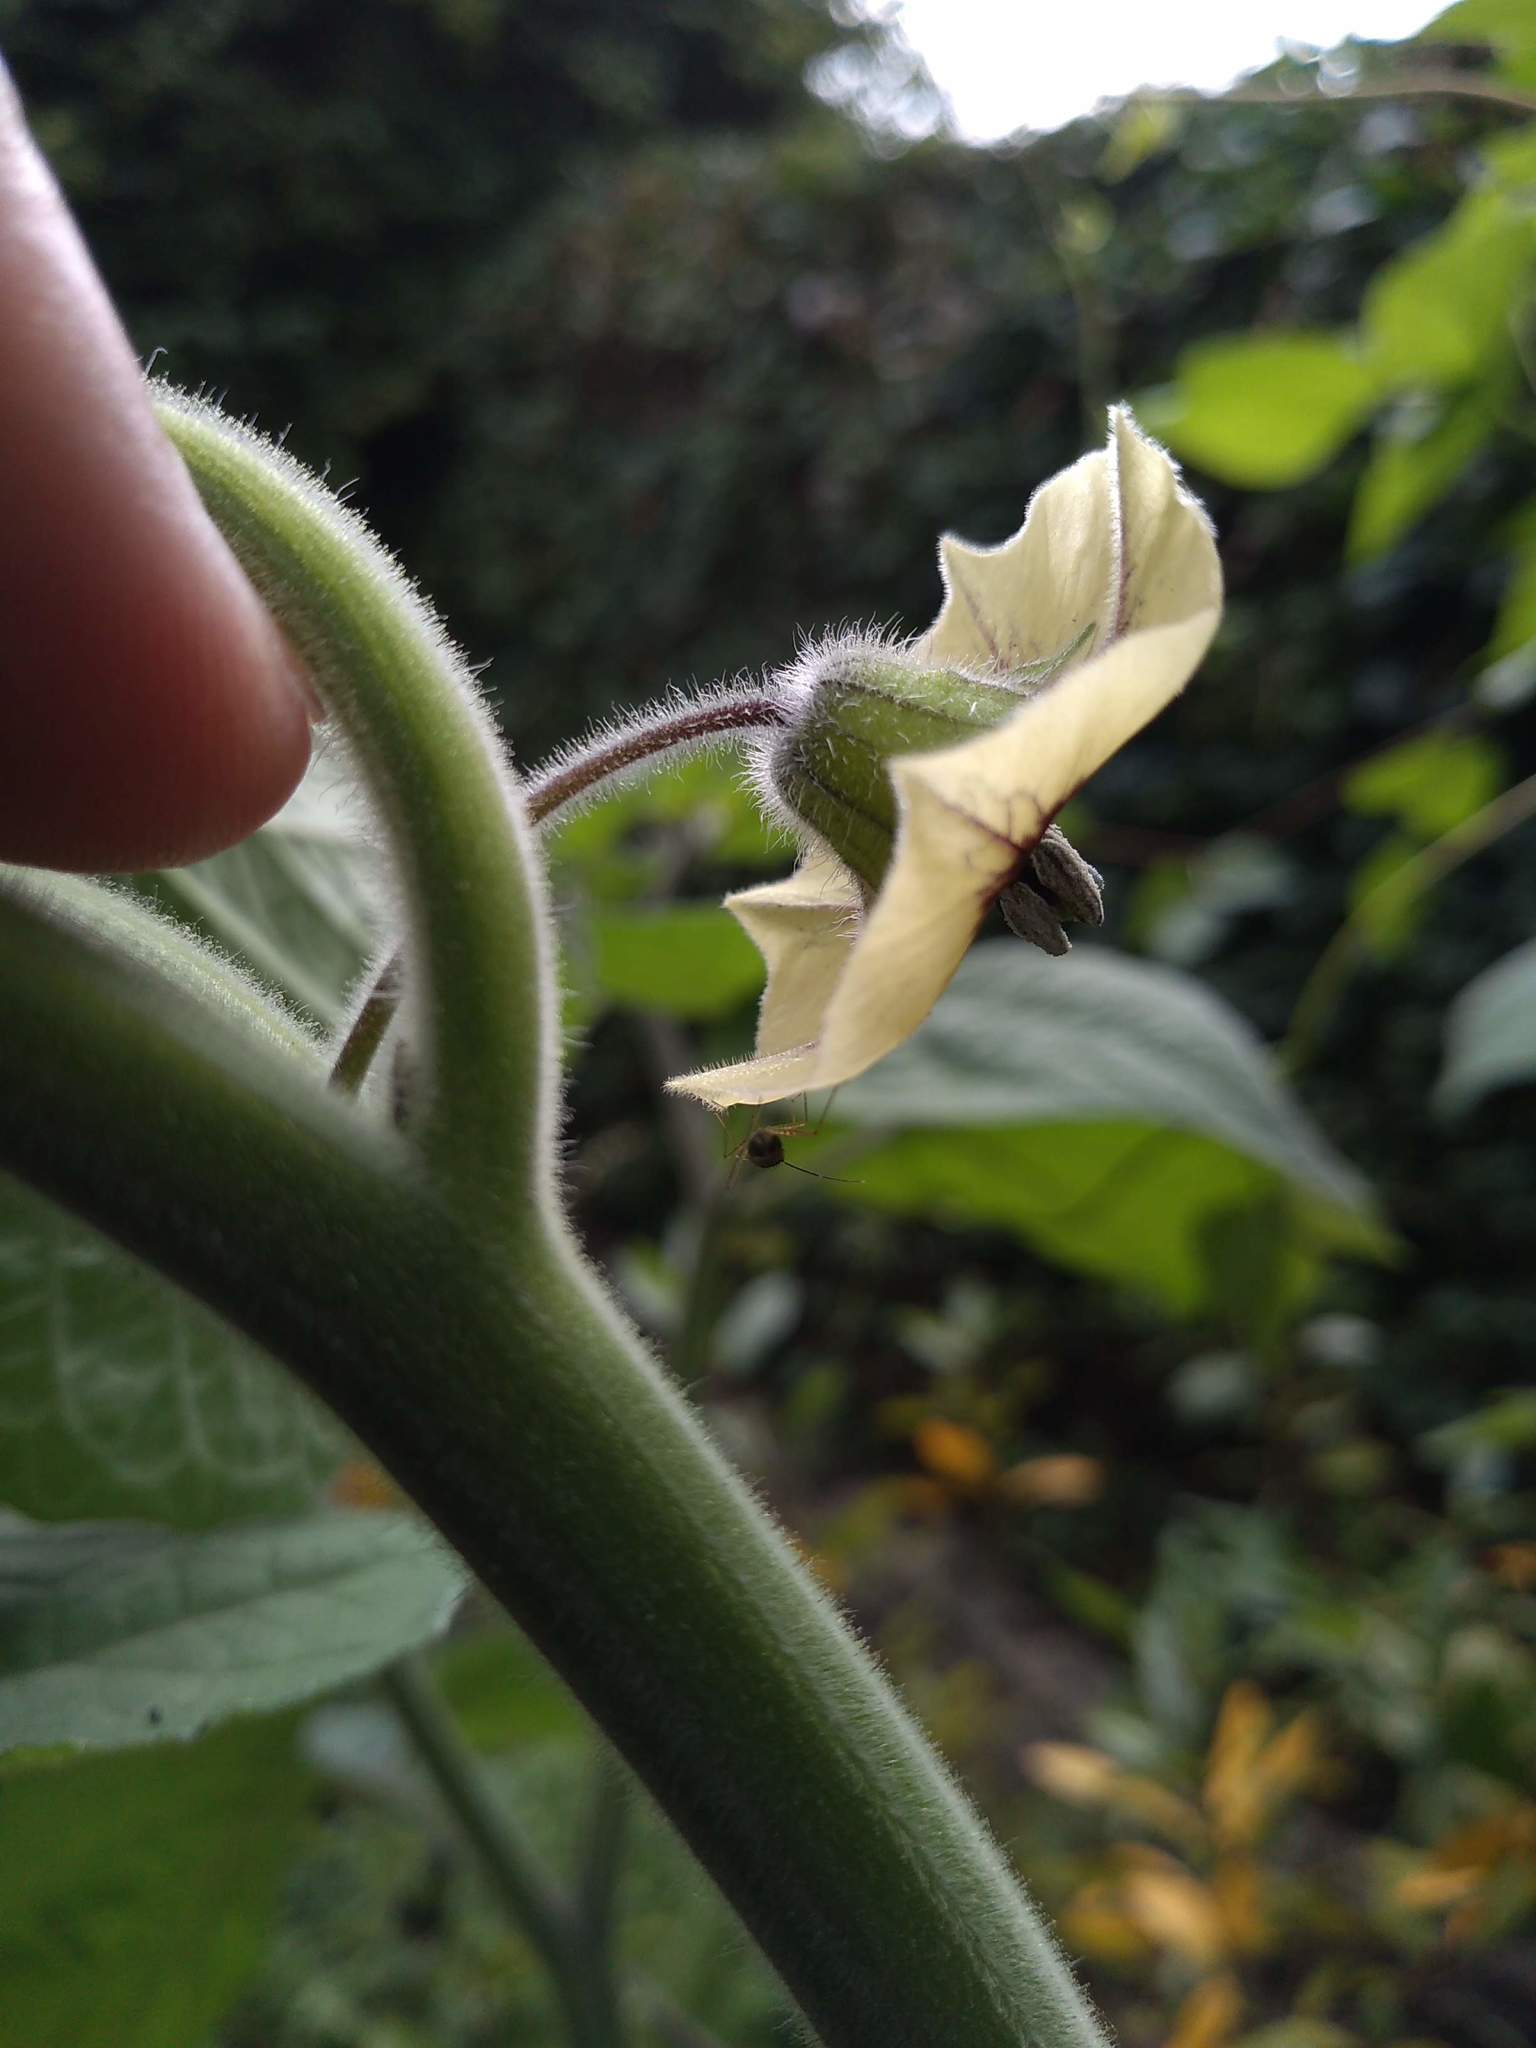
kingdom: Plantae
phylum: Tracheophyta
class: Magnoliopsida
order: Solanales
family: Solanaceae
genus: Physalis
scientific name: Physalis peruviana
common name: Cape-gooseberry
